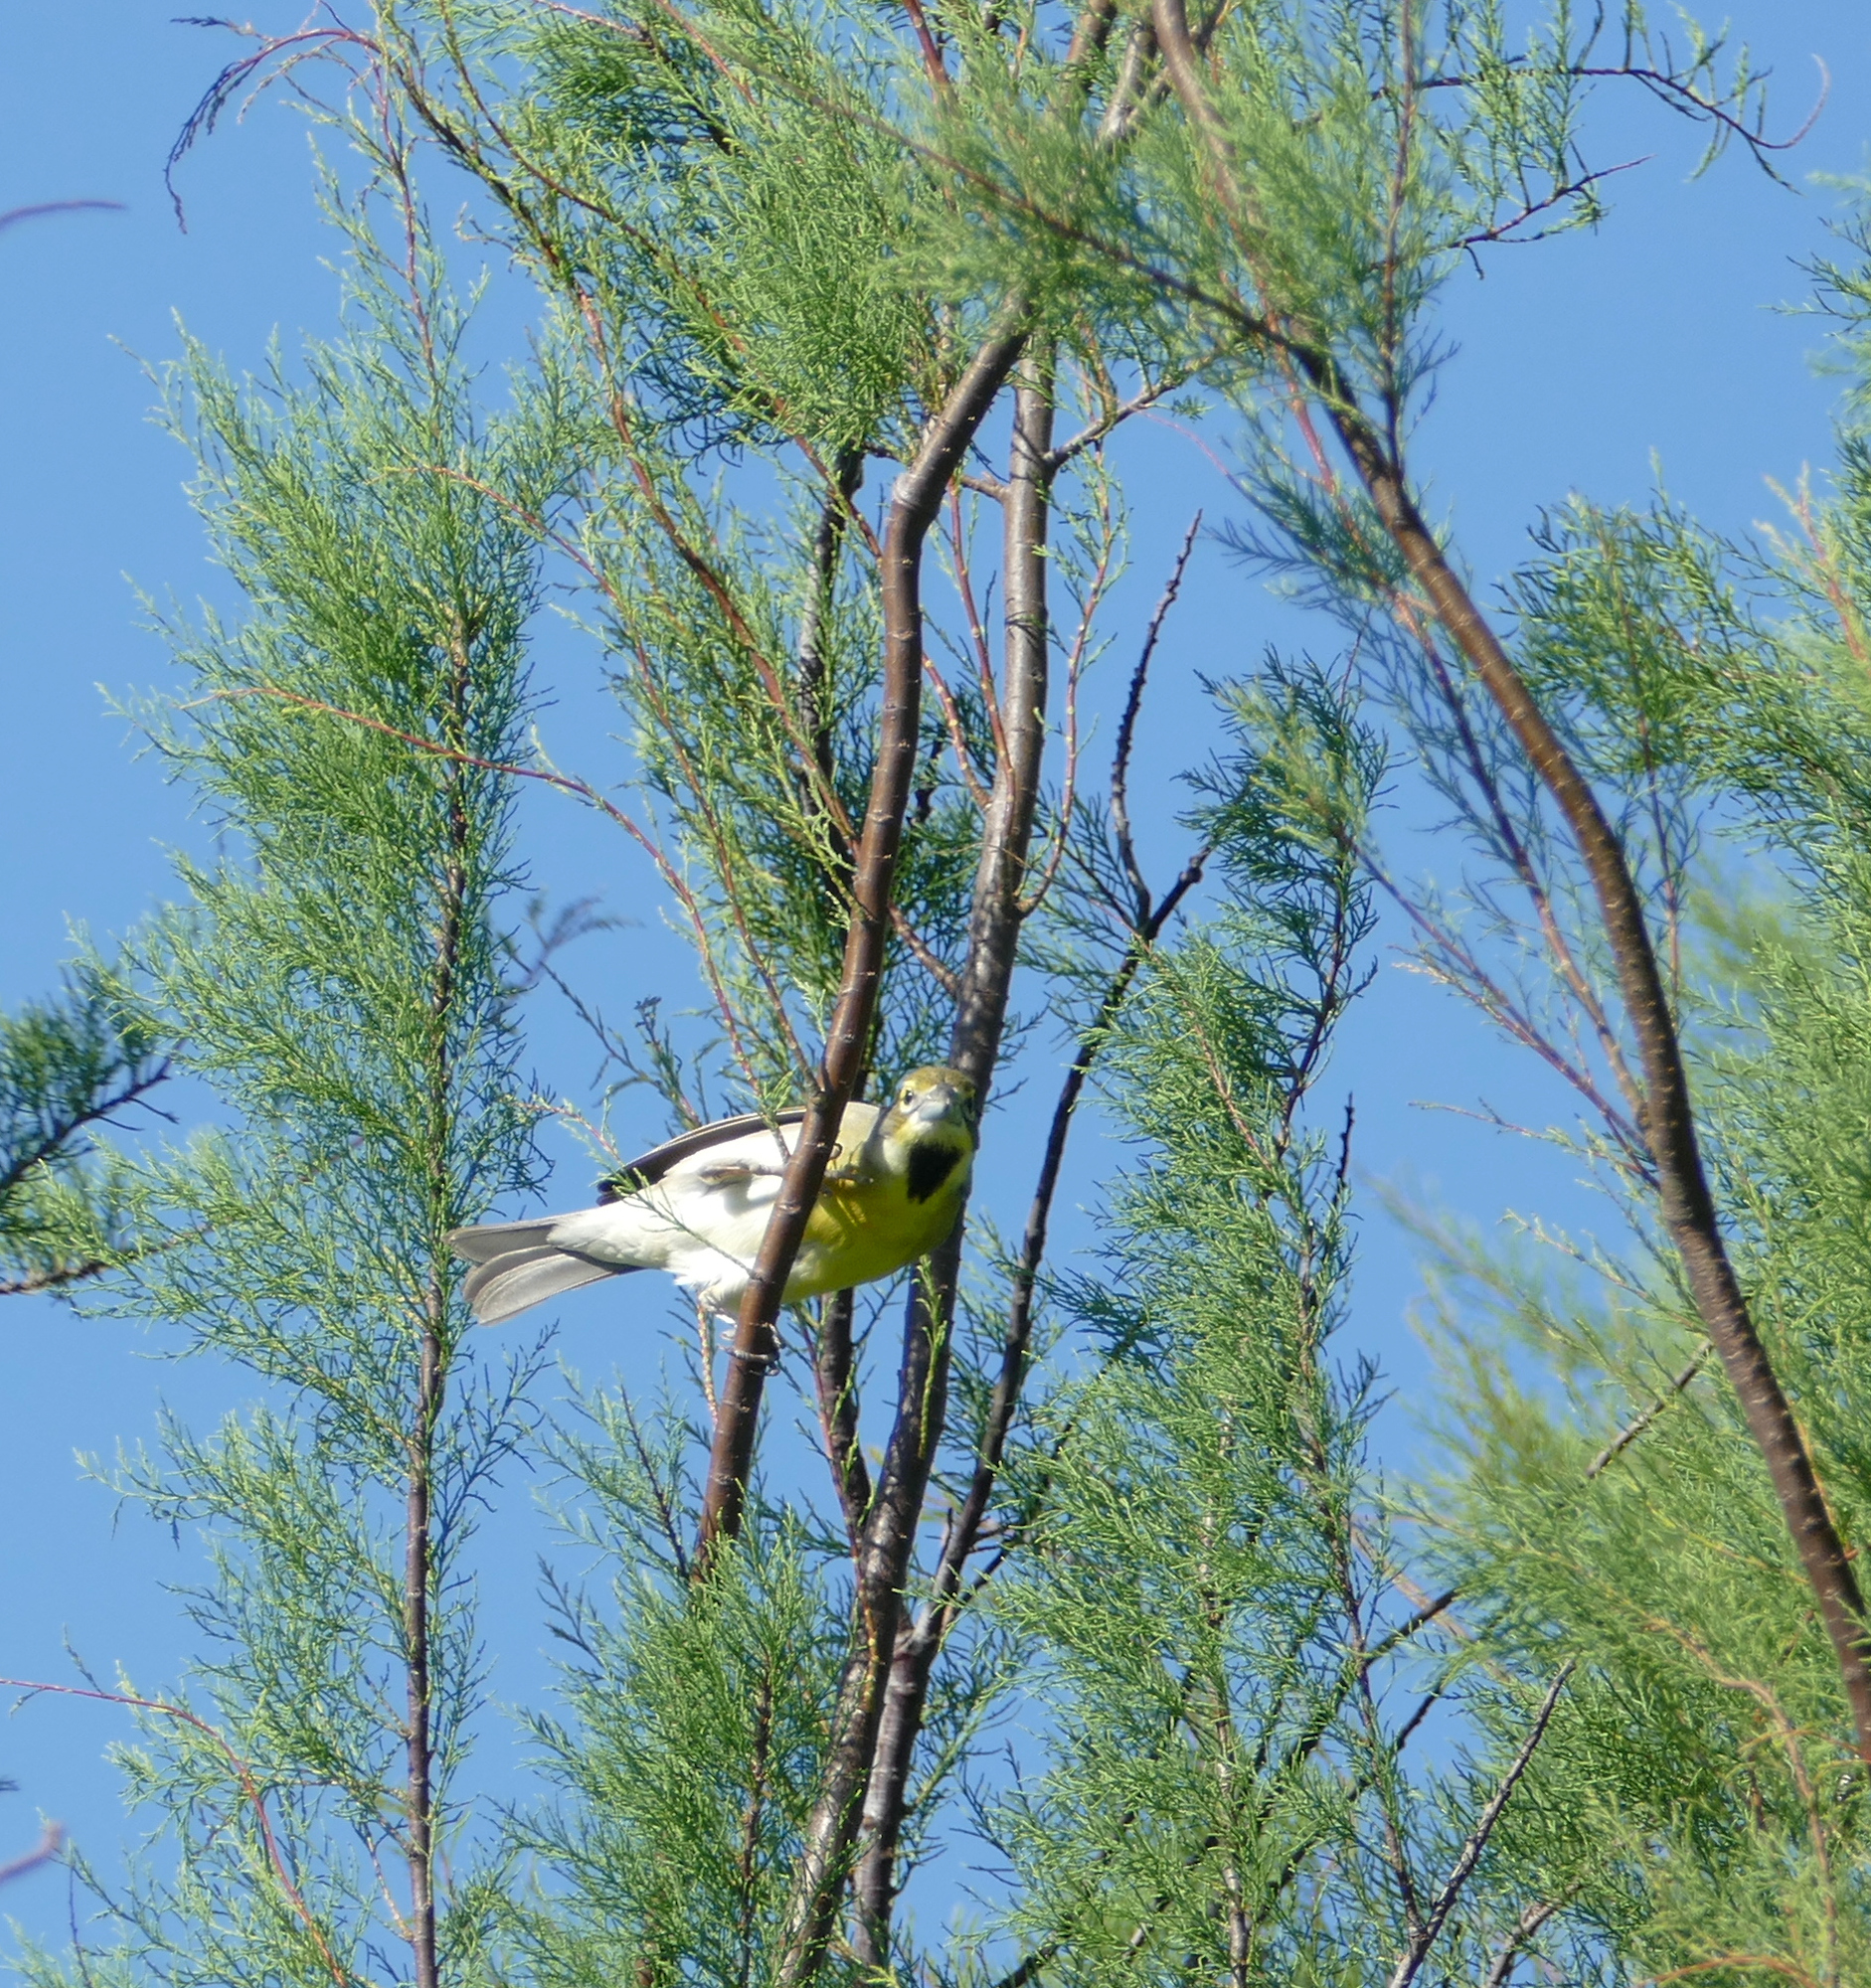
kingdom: Animalia
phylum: Chordata
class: Aves
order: Passeriformes
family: Cardinalidae
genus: Spiza
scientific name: Spiza americana
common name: Dickcissel
